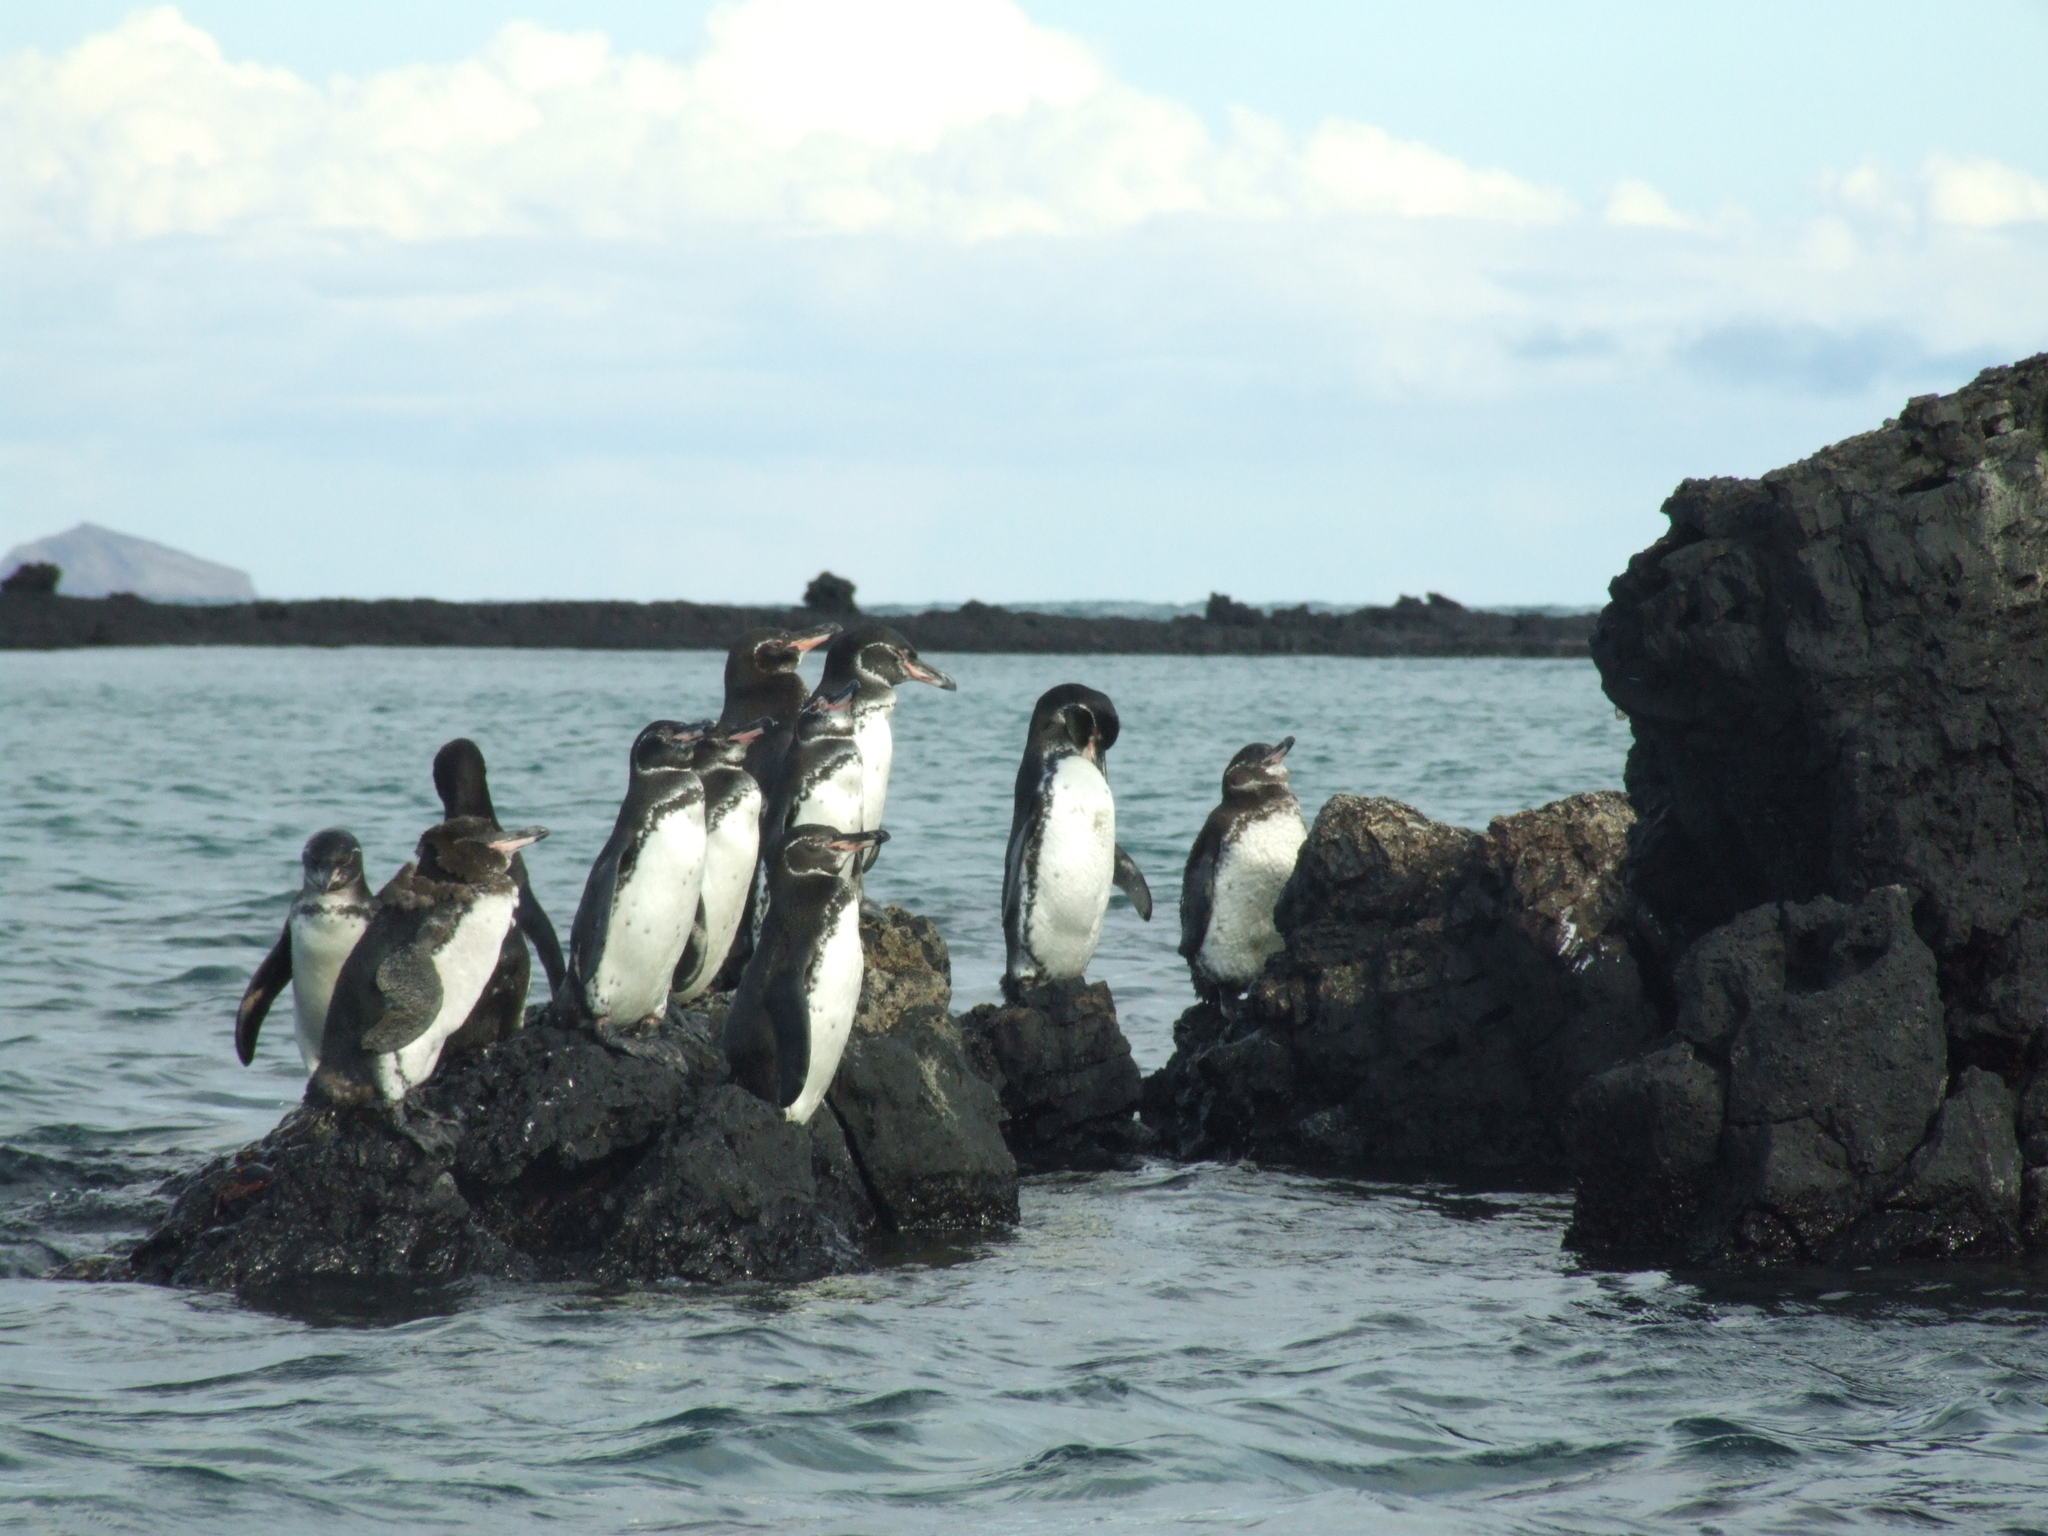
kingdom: Animalia
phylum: Chordata
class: Aves
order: Sphenisciformes
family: Spheniscidae
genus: Spheniscus
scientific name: Spheniscus mendiculus
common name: Galapagos penguin
